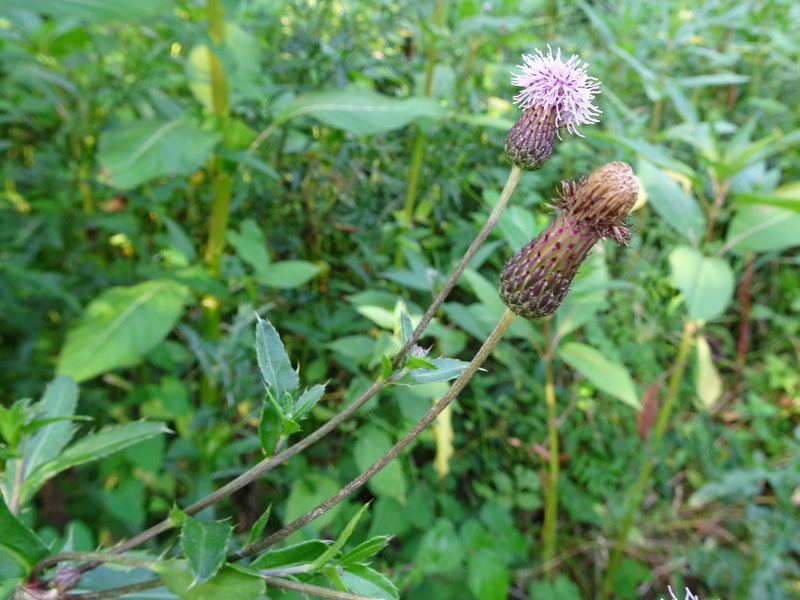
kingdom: Plantae
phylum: Tracheophyta
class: Magnoliopsida
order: Asterales
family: Asteraceae
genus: Cirsium
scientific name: Cirsium arvense
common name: Creeping thistle
